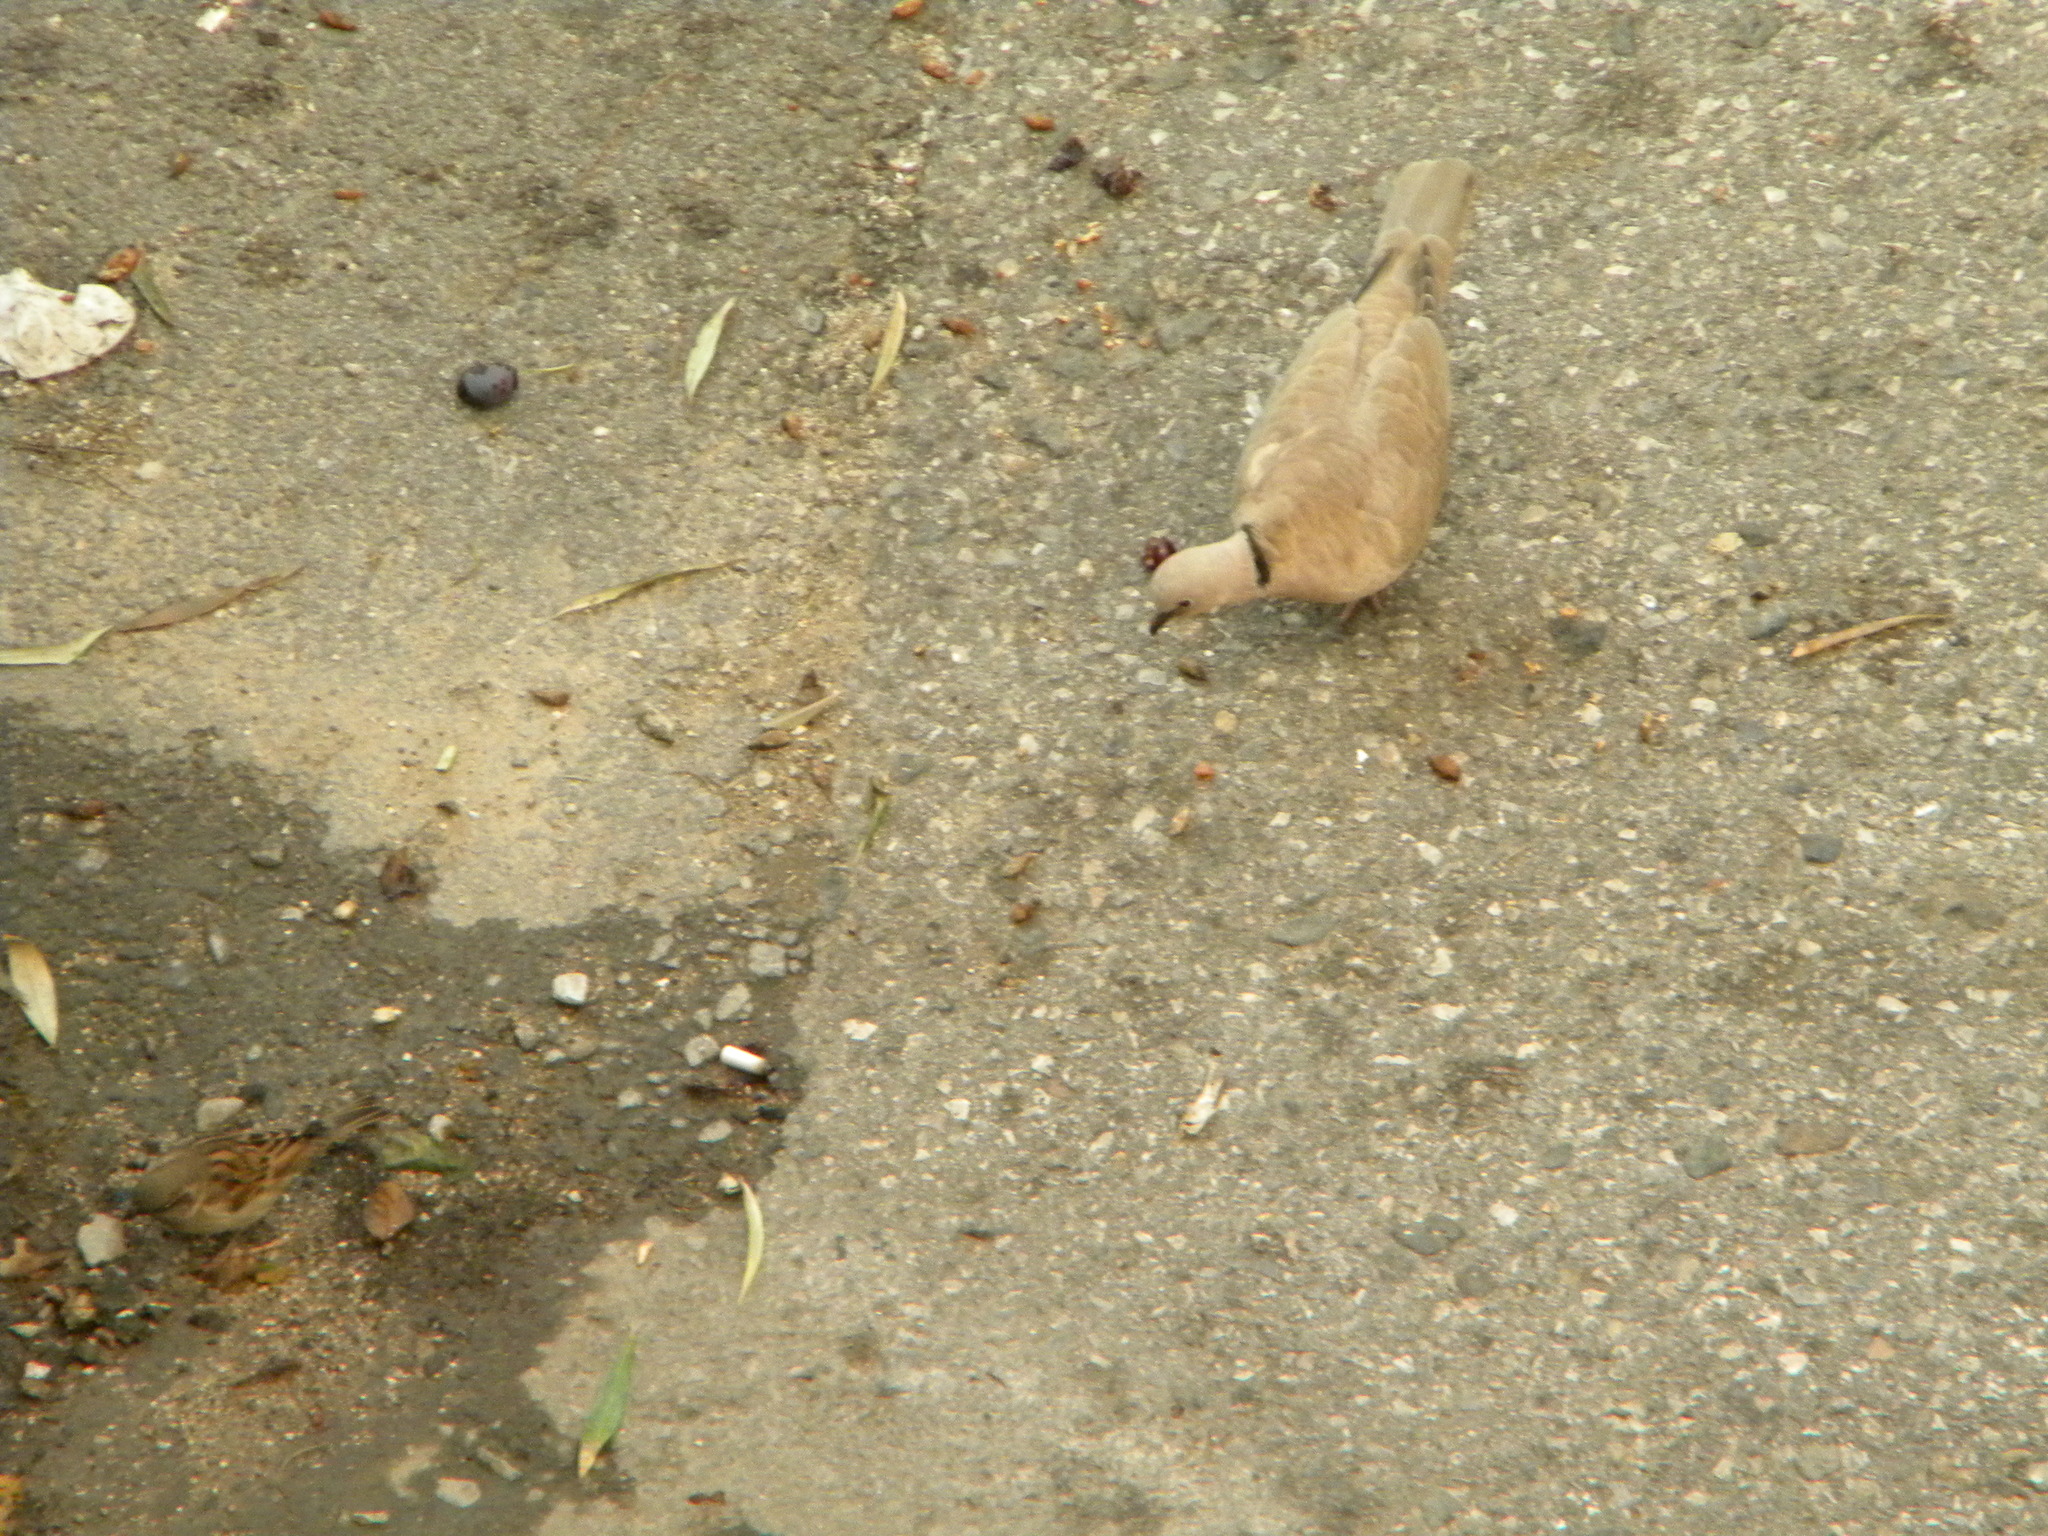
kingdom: Animalia
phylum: Chordata
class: Aves
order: Columbiformes
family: Columbidae
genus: Streptopelia
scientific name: Streptopelia decaocto
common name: Eurasian collared dove
